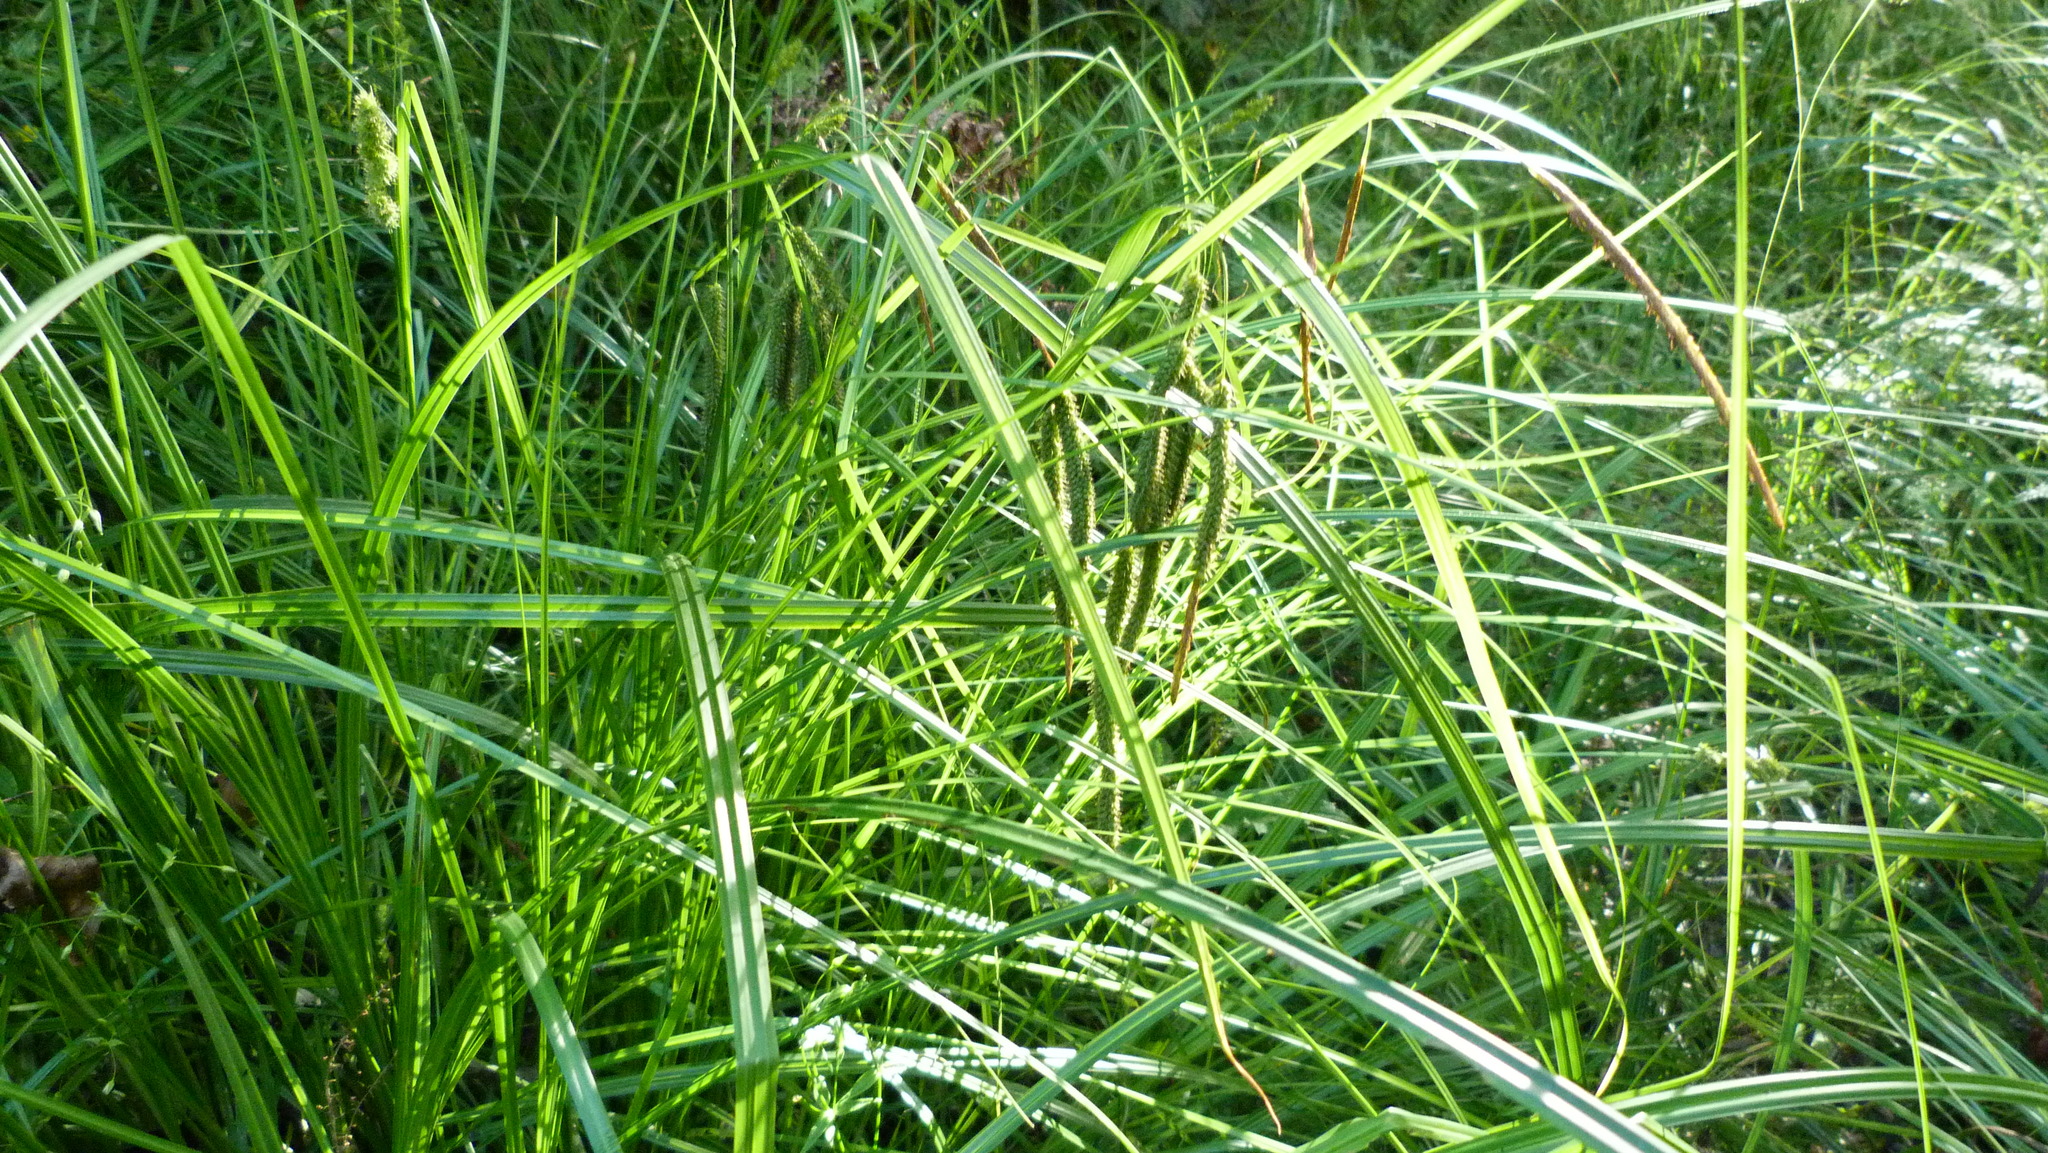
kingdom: Plantae
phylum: Tracheophyta
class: Liliopsida
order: Poales
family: Cyperaceae
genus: Carex
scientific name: Carex geminata
